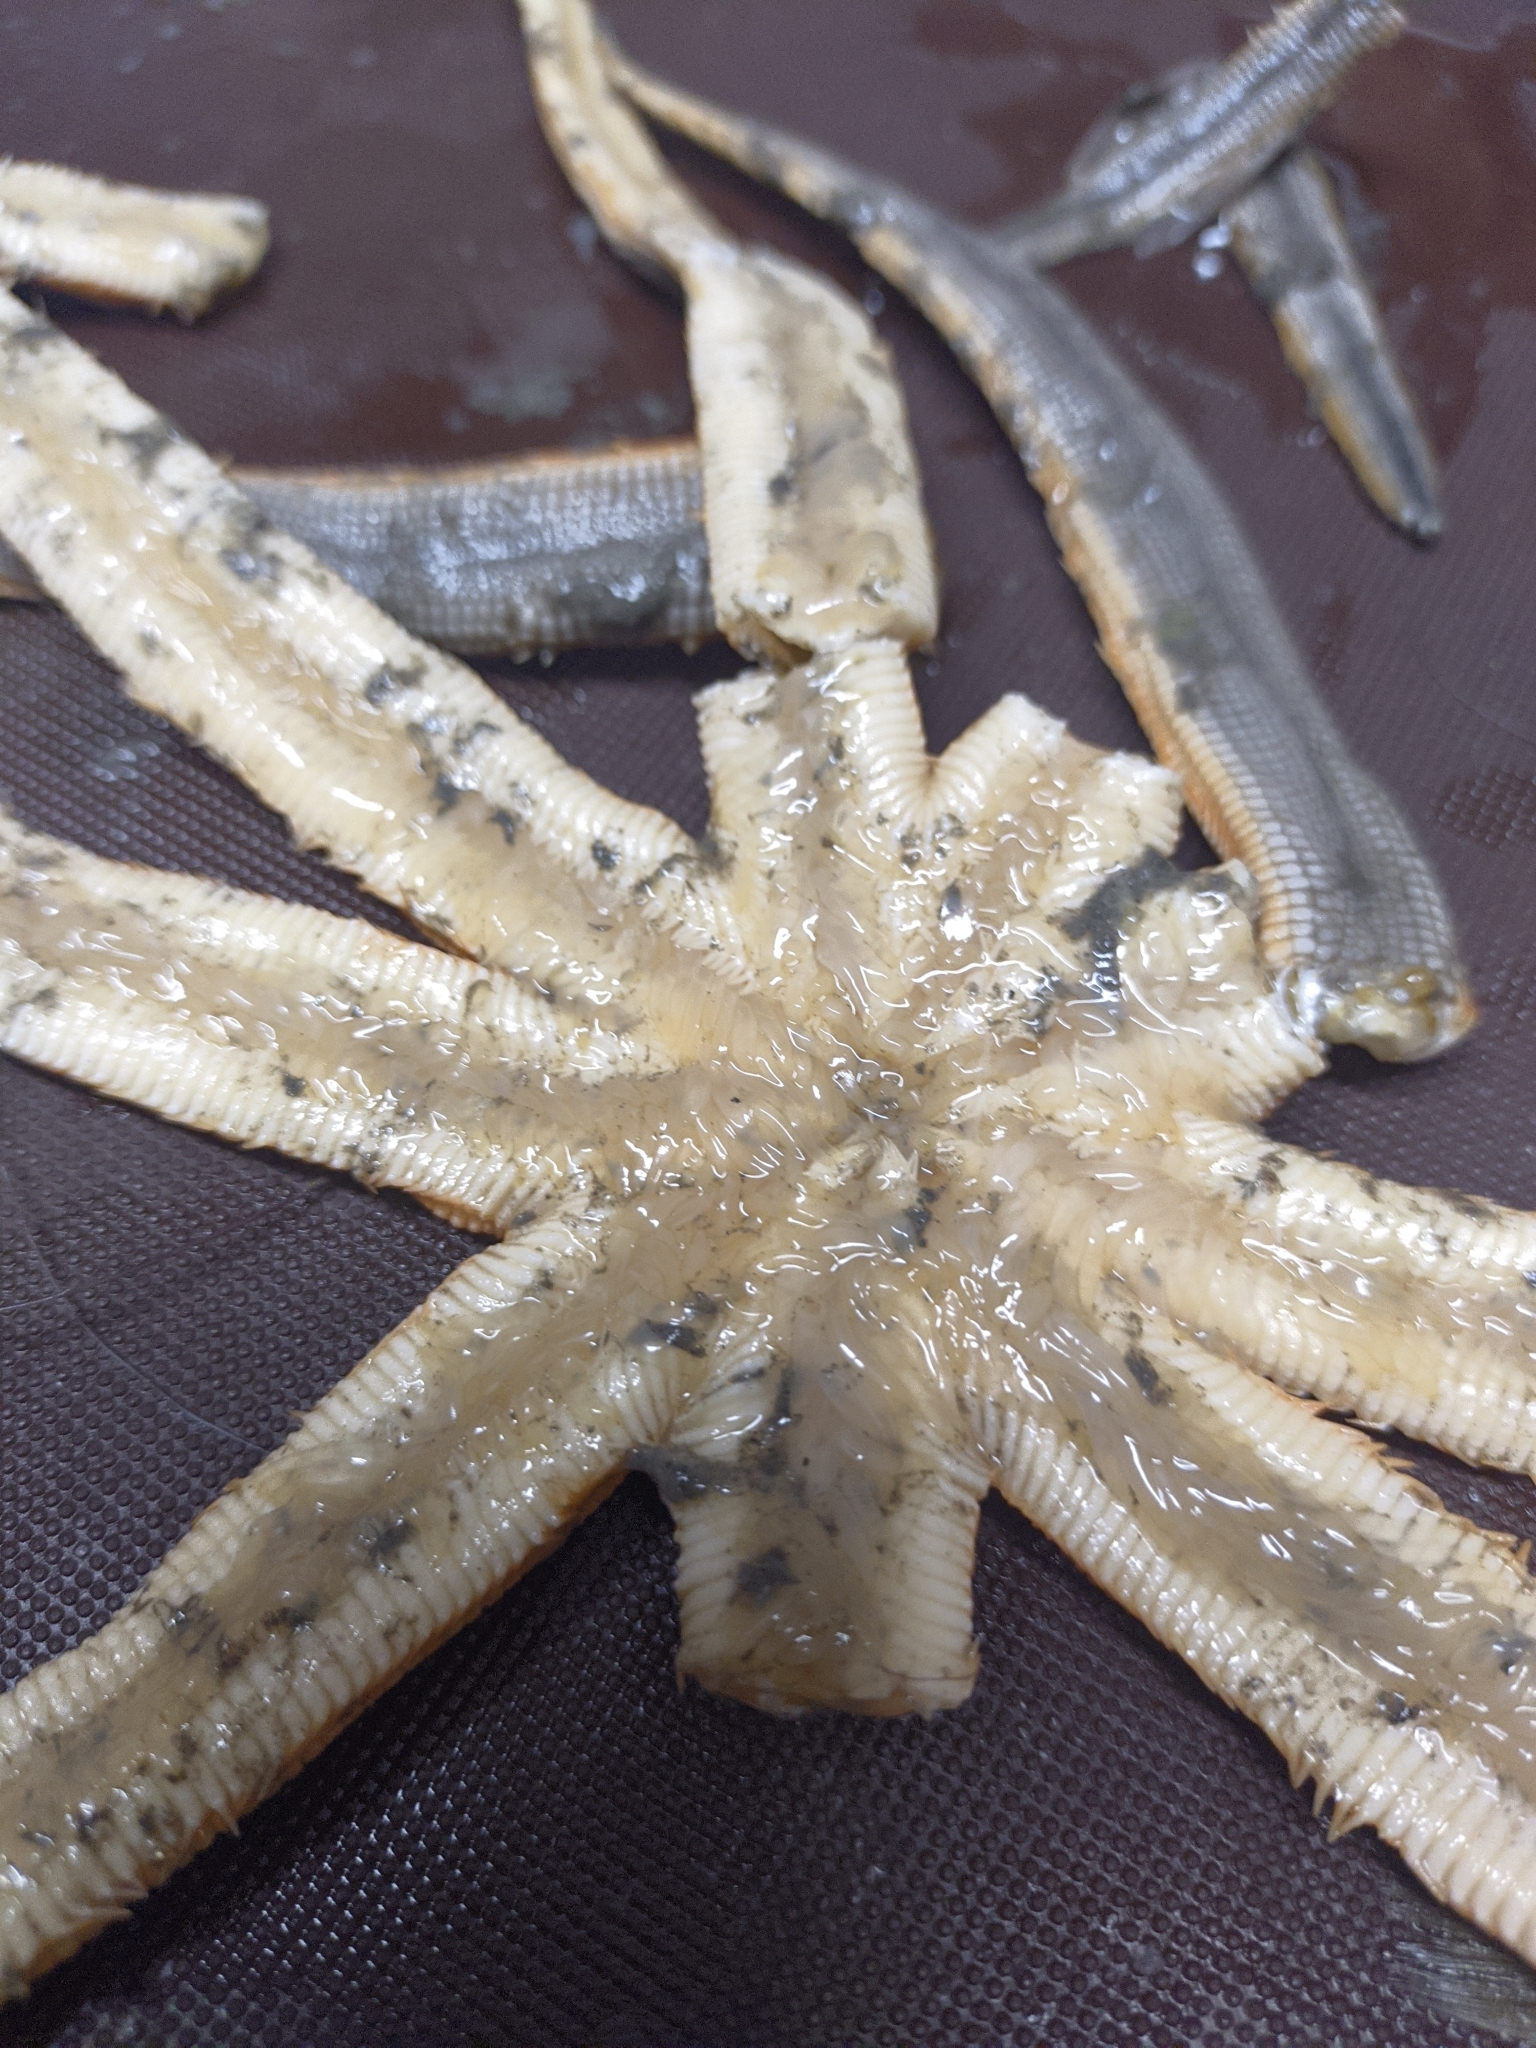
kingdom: Animalia
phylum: Echinodermata
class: Asteroidea
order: Paxillosida
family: Luidiidae
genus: Luidia
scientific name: Luidia senegalensis
